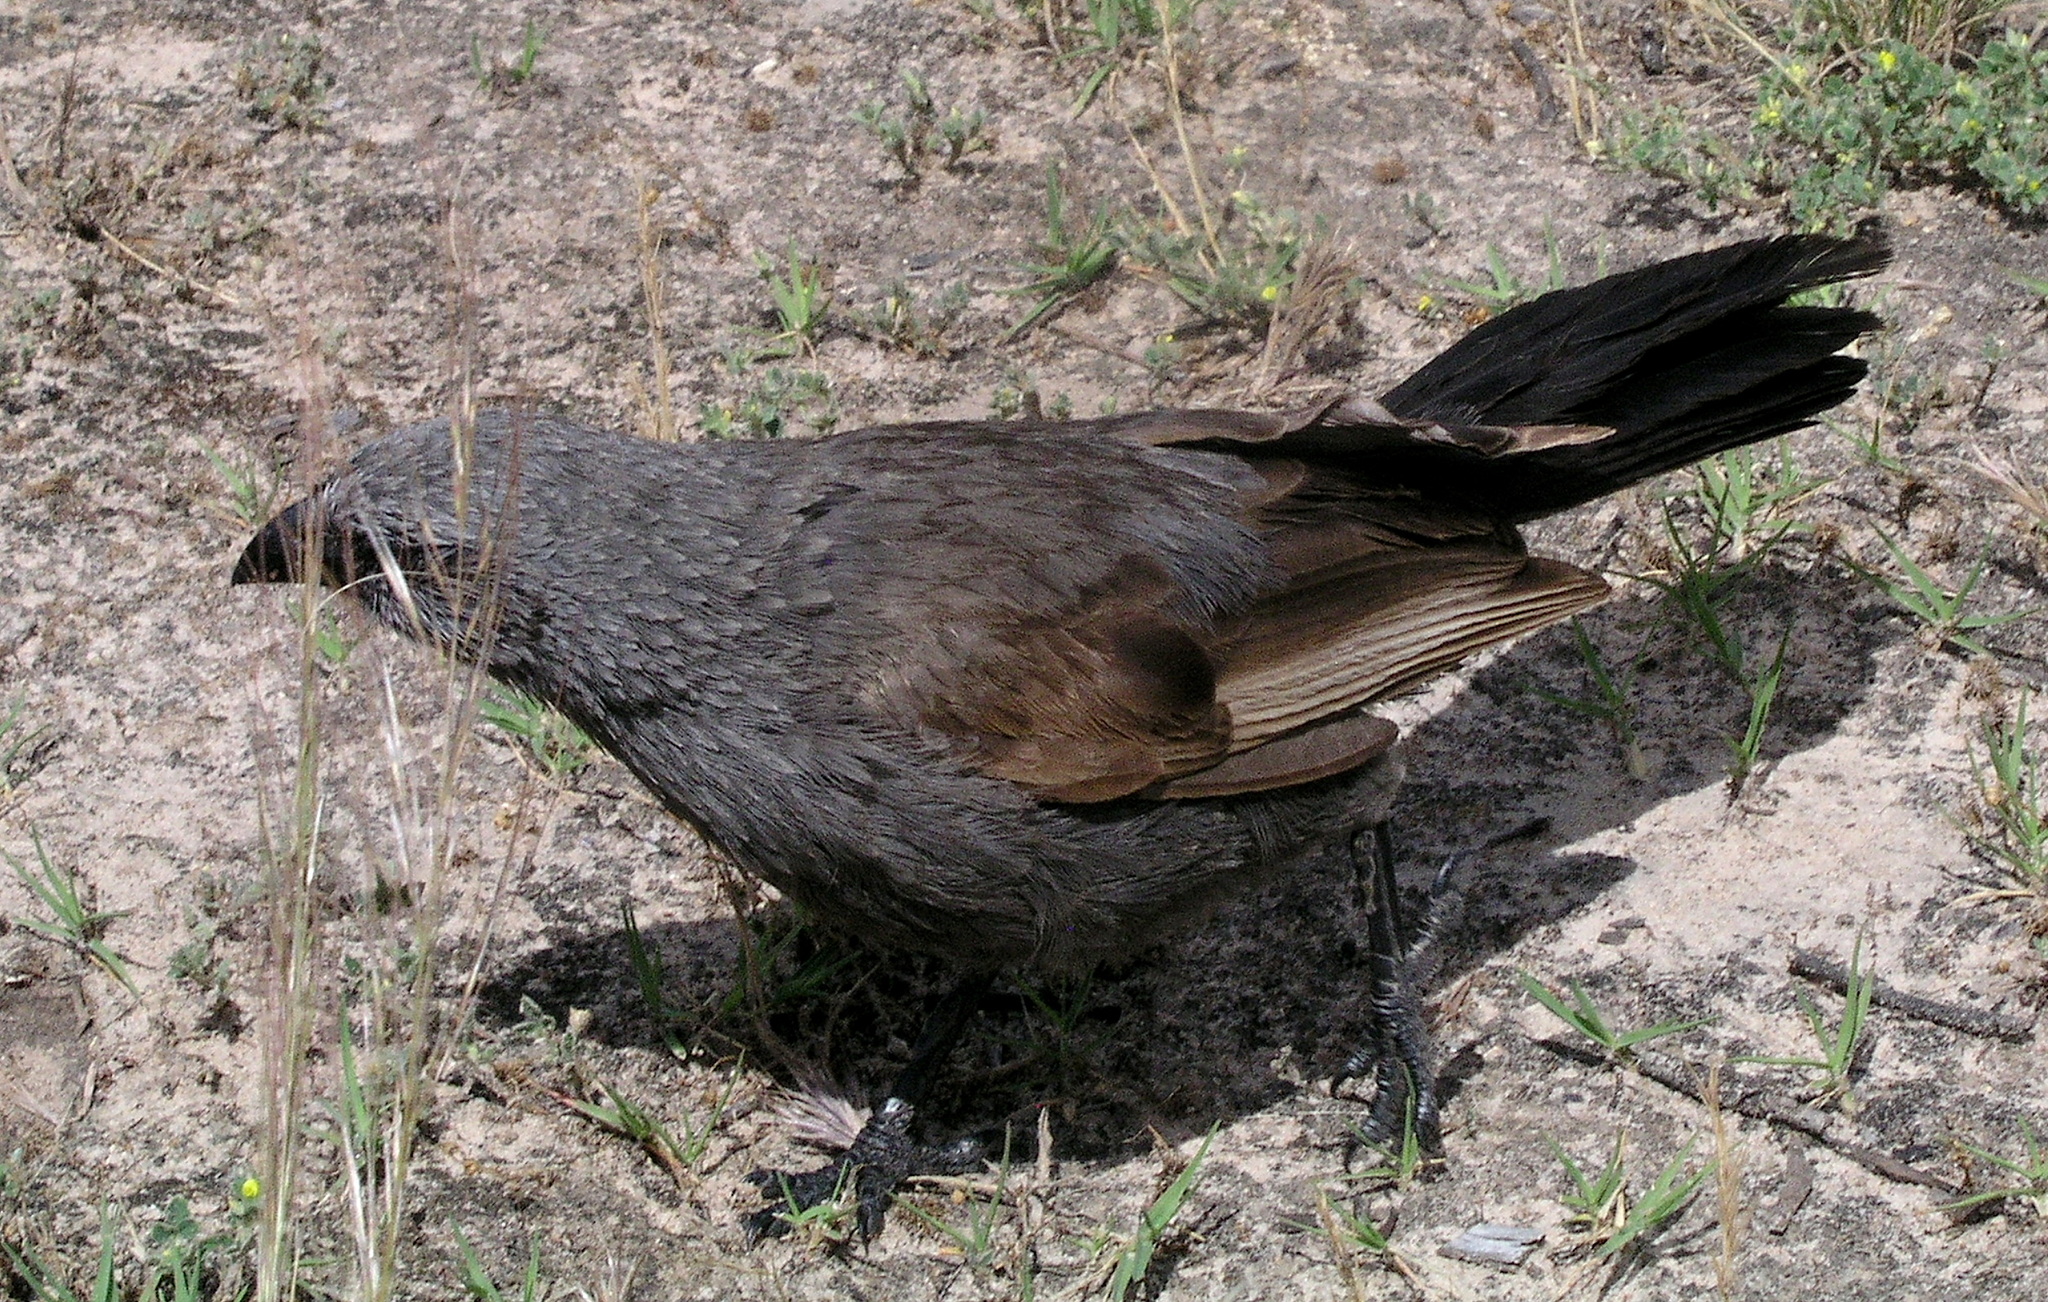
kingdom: Animalia
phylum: Chordata
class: Aves
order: Passeriformes
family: Corcoracidae
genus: Struthidea
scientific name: Struthidea cinerea
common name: Apostlebird
